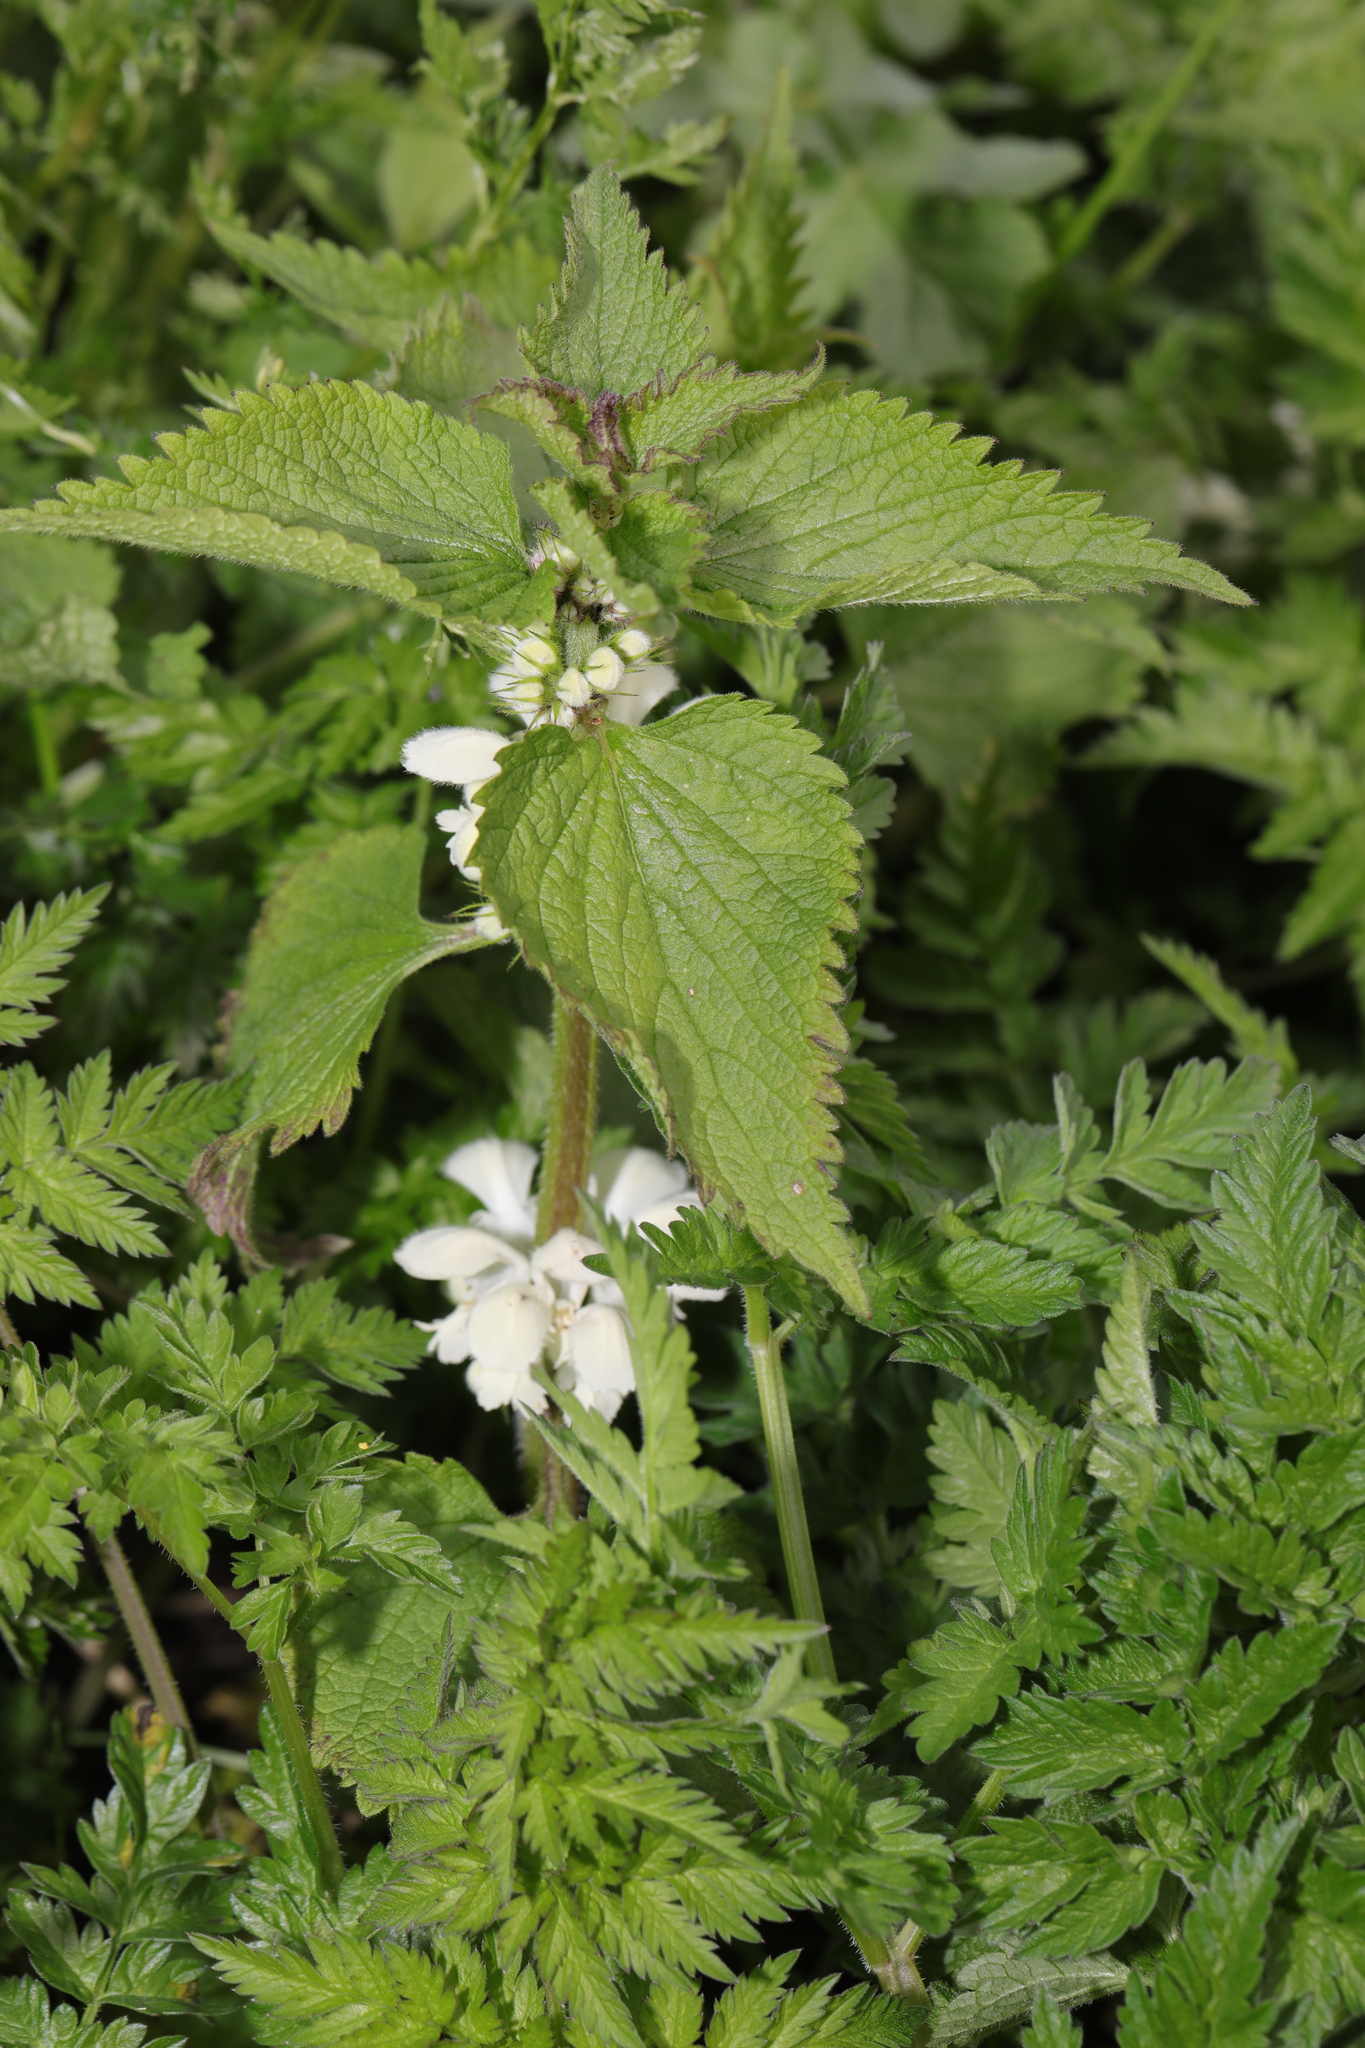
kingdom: Plantae
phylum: Tracheophyta
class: Magnoliopsida
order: Lamiales
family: Lamiaceae
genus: Lamium
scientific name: Lamium album
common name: White dead-nettle
